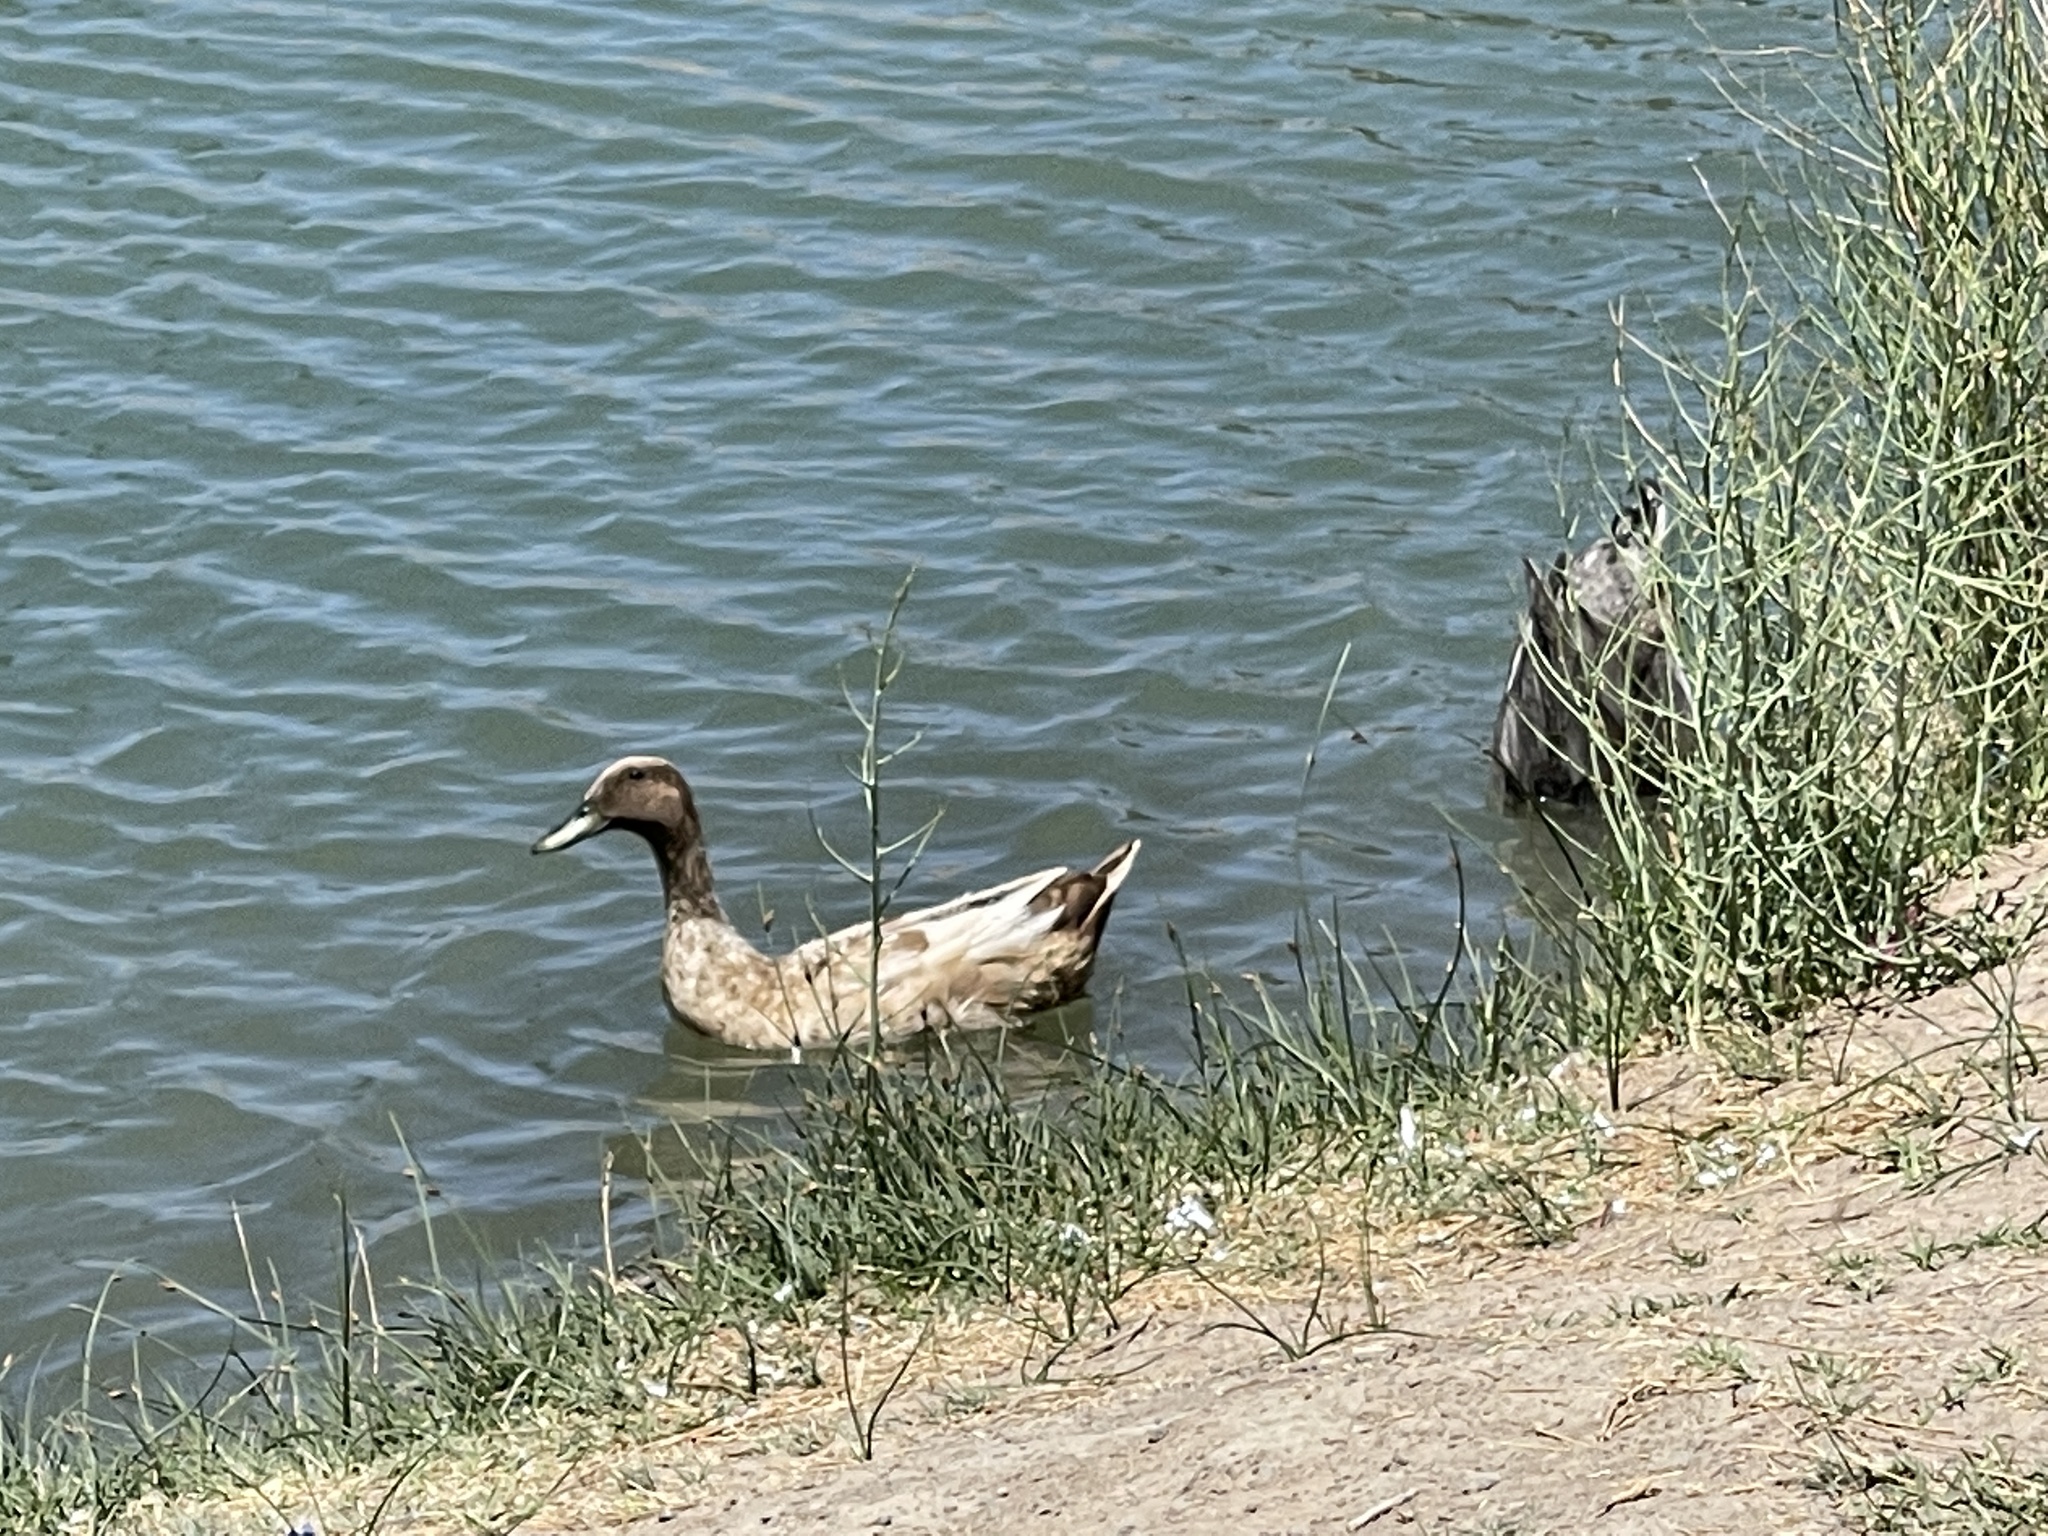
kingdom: Animalia
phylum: Chordata
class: Aves
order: Anseriformes
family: Anatidae
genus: Anas
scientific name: Anas platyrhynchos
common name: Mallard
